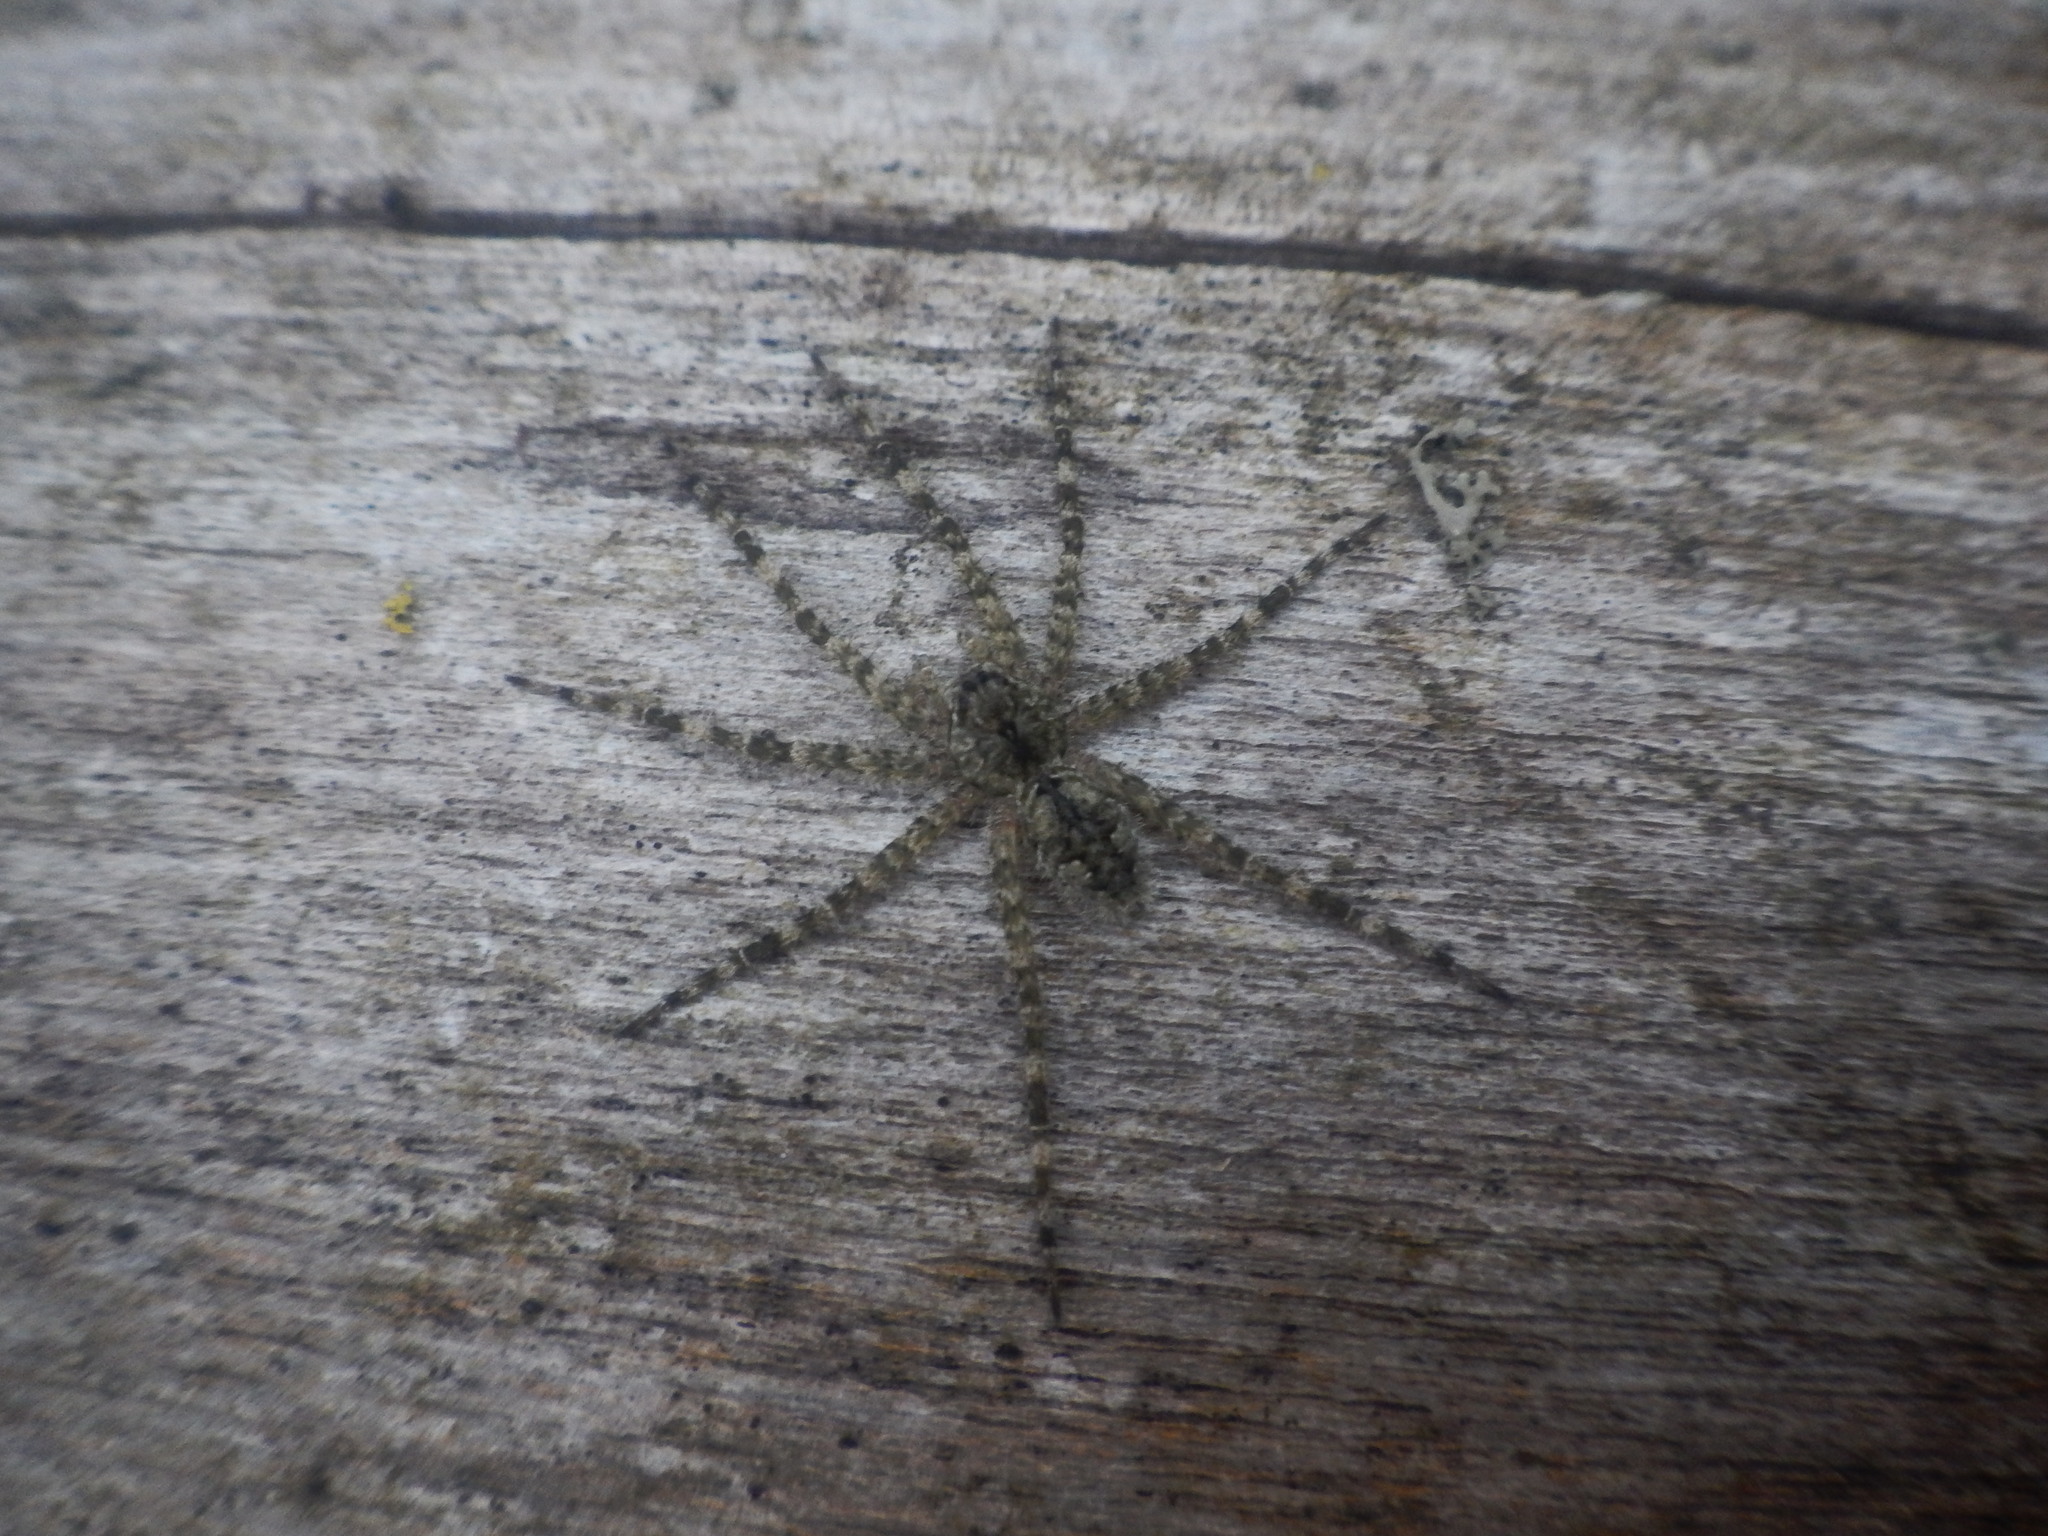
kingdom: Animalia
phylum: Arthropoda
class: Arachnida
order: Araneae
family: Pisauridae
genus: Dolomedes
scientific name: Dolomedes albineus
